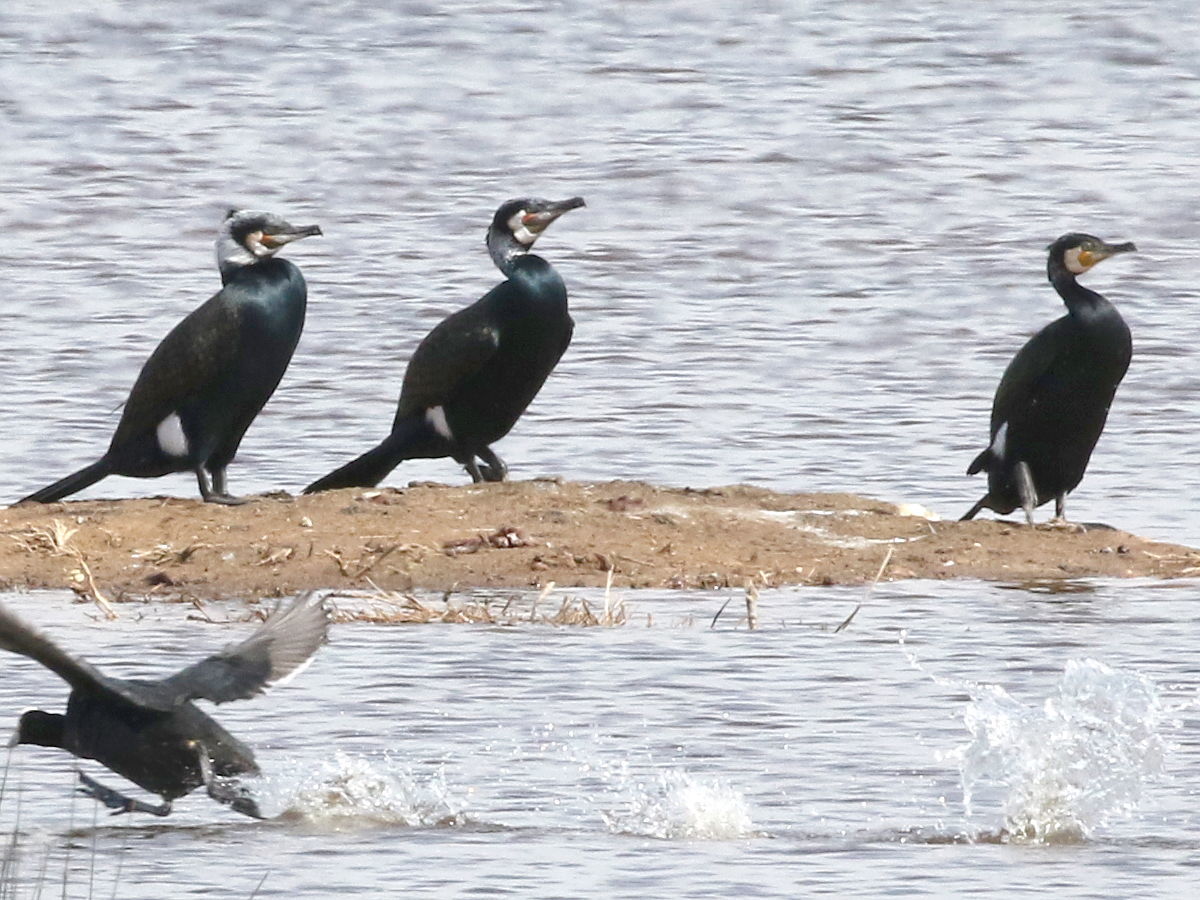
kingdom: Animalia
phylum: Chordata
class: Aves
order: Suliformes
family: Phalacrocoracidae
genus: Phalacrocorax
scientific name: Phalacrocorax carbo
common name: Great cormorant
